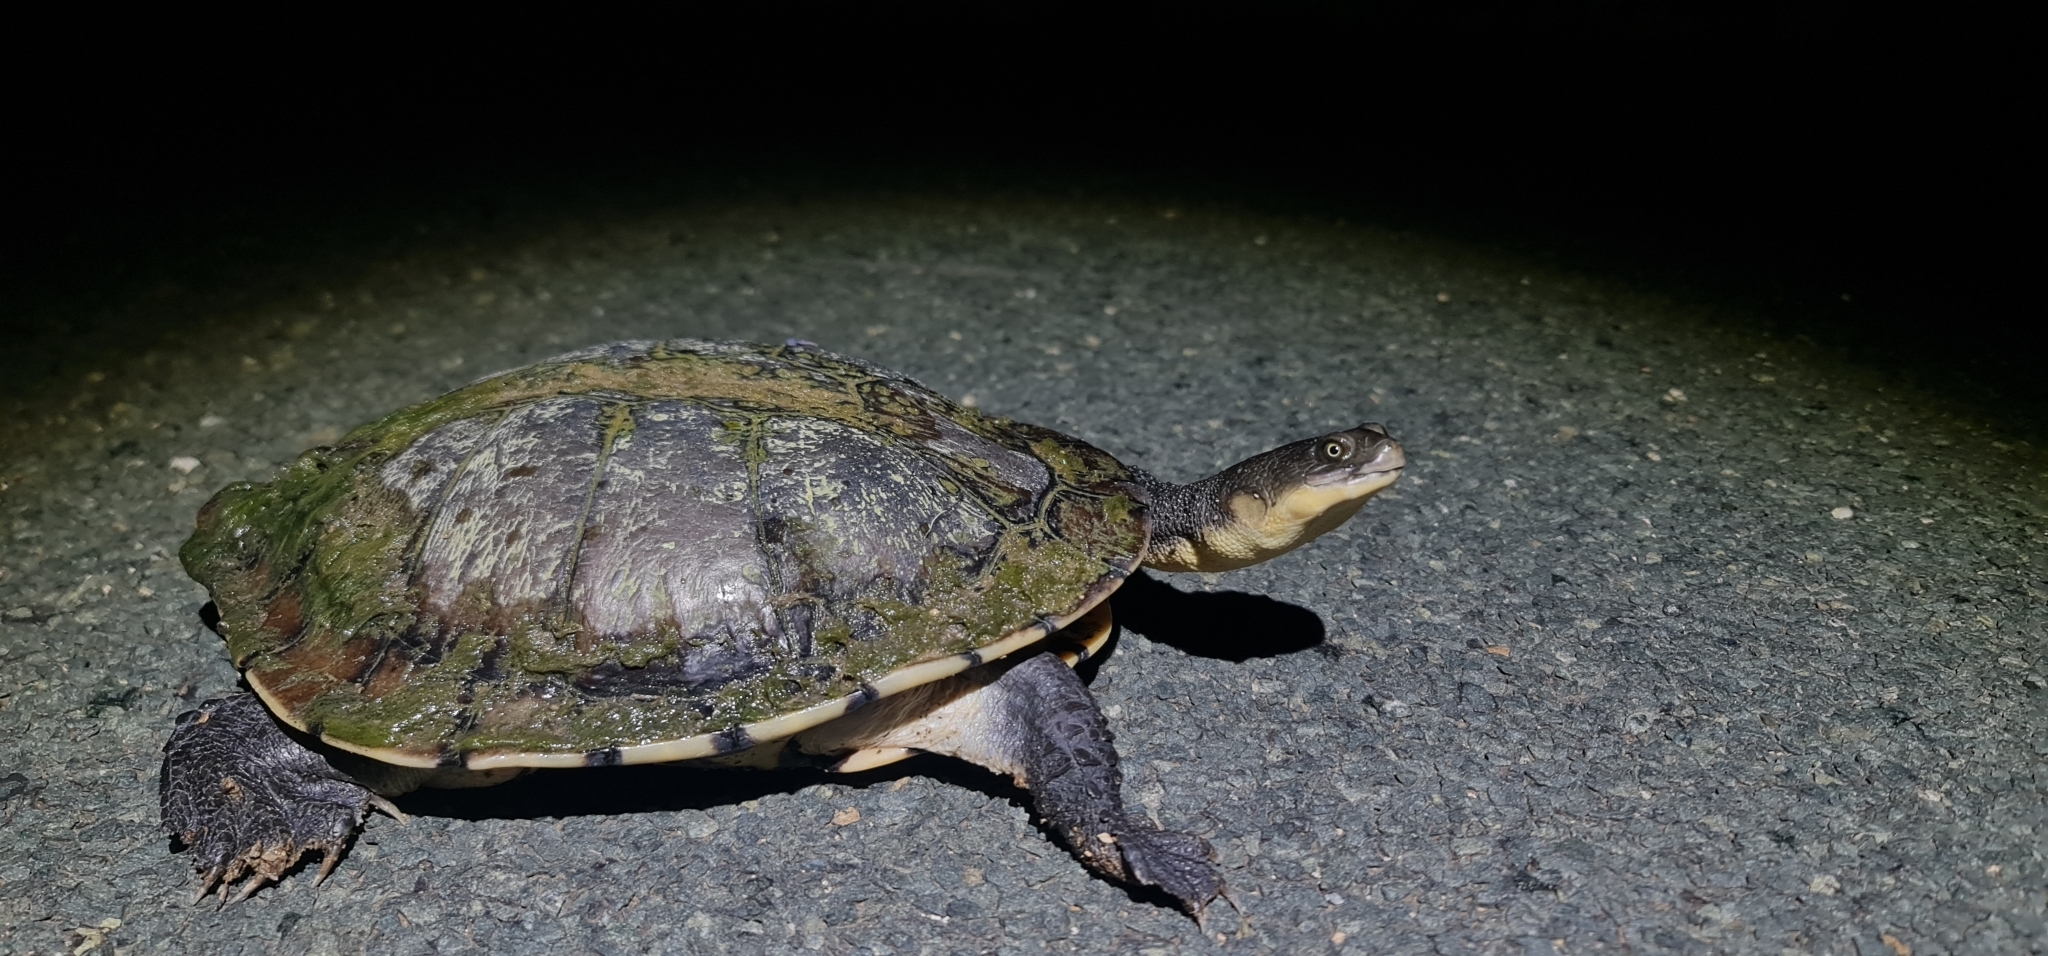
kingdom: Animalia
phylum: Chordata
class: Testudines
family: Chelidae
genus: Chelodina
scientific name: Chelodina longicollis
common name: Eastern snake-necked turtle
